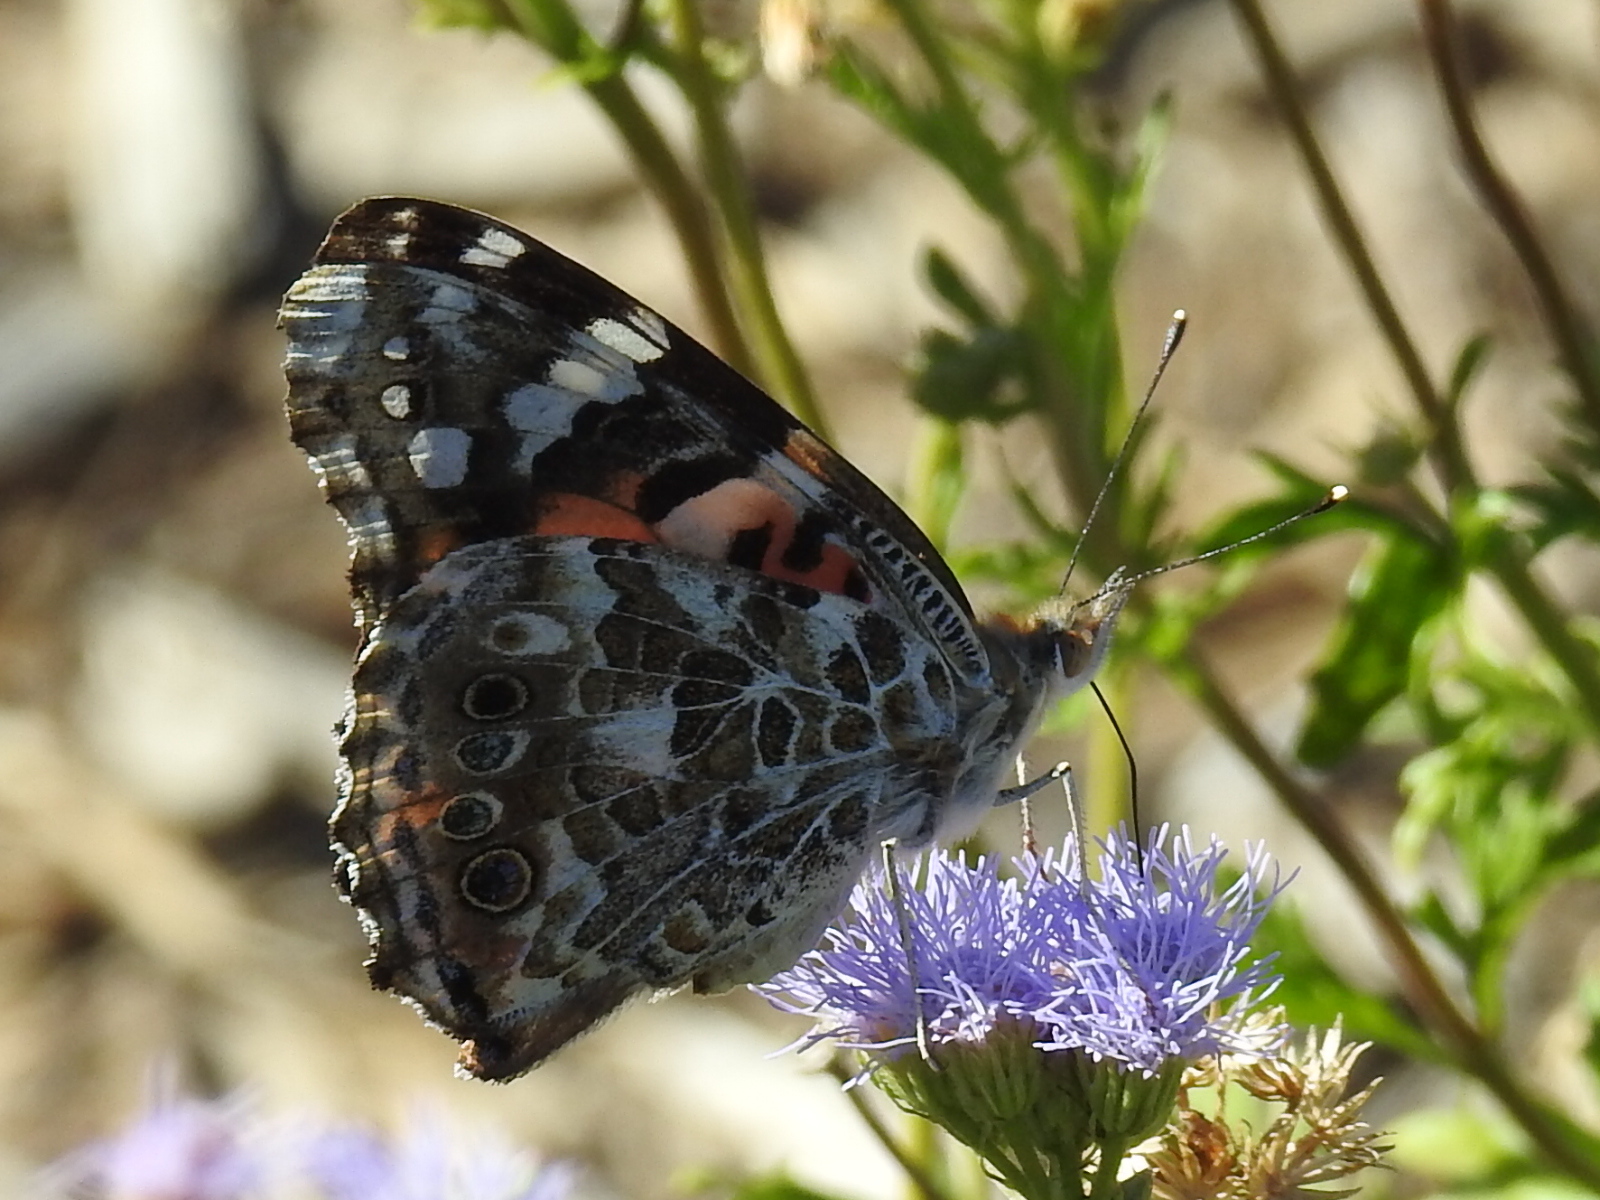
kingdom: Animalia
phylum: Arthropoda
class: Insecta
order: Lepidoptera
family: Nymphalidae
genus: Vanessa
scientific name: Vanessa cardui
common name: Painted lady
